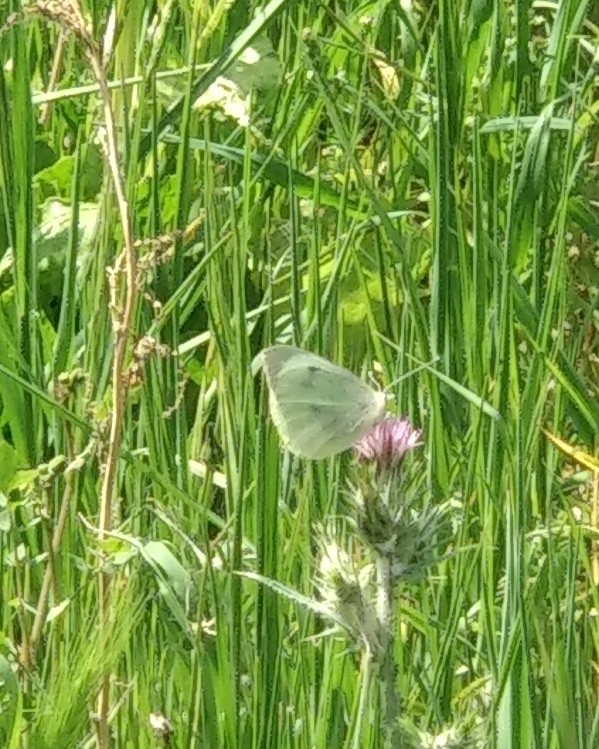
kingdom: Animalia
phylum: Arthropoda
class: Insecta
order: Lepidoptera
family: Pieridae
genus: Pieris
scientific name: Pieris brassicae
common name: Large white
